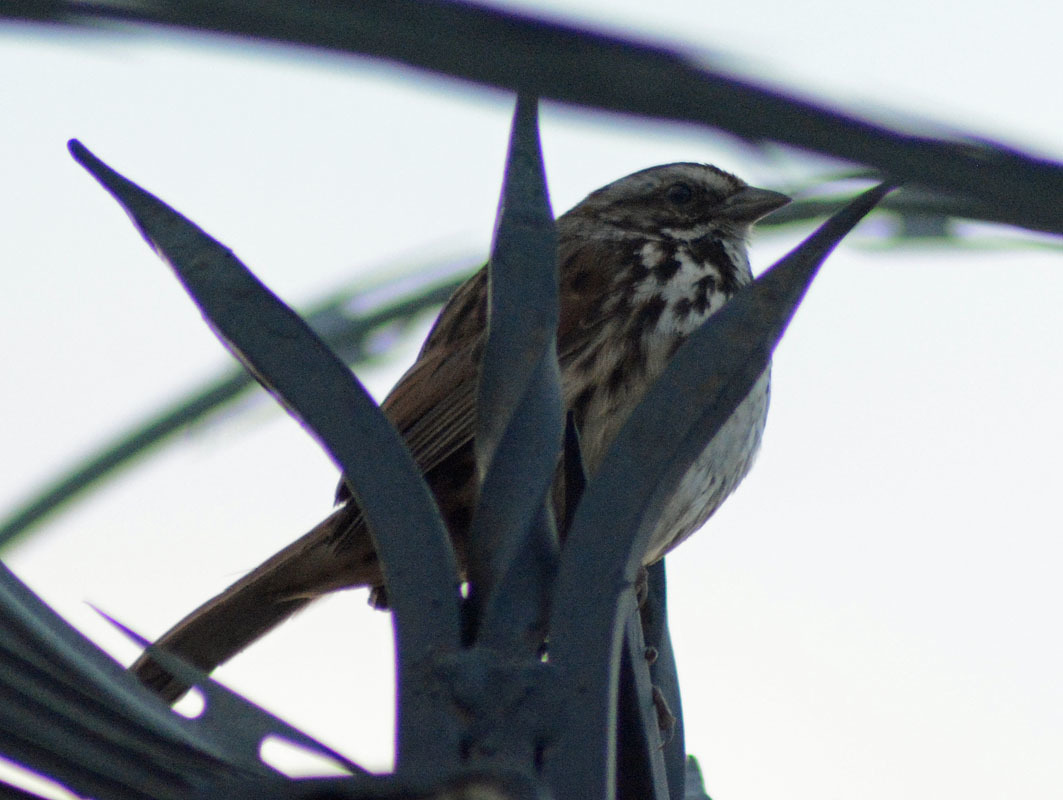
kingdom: Animalia
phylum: Chordata
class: Aves
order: Passeriformes
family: Passerellidae
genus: Melospiza
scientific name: Melospiza melodia
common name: Song sparrow
